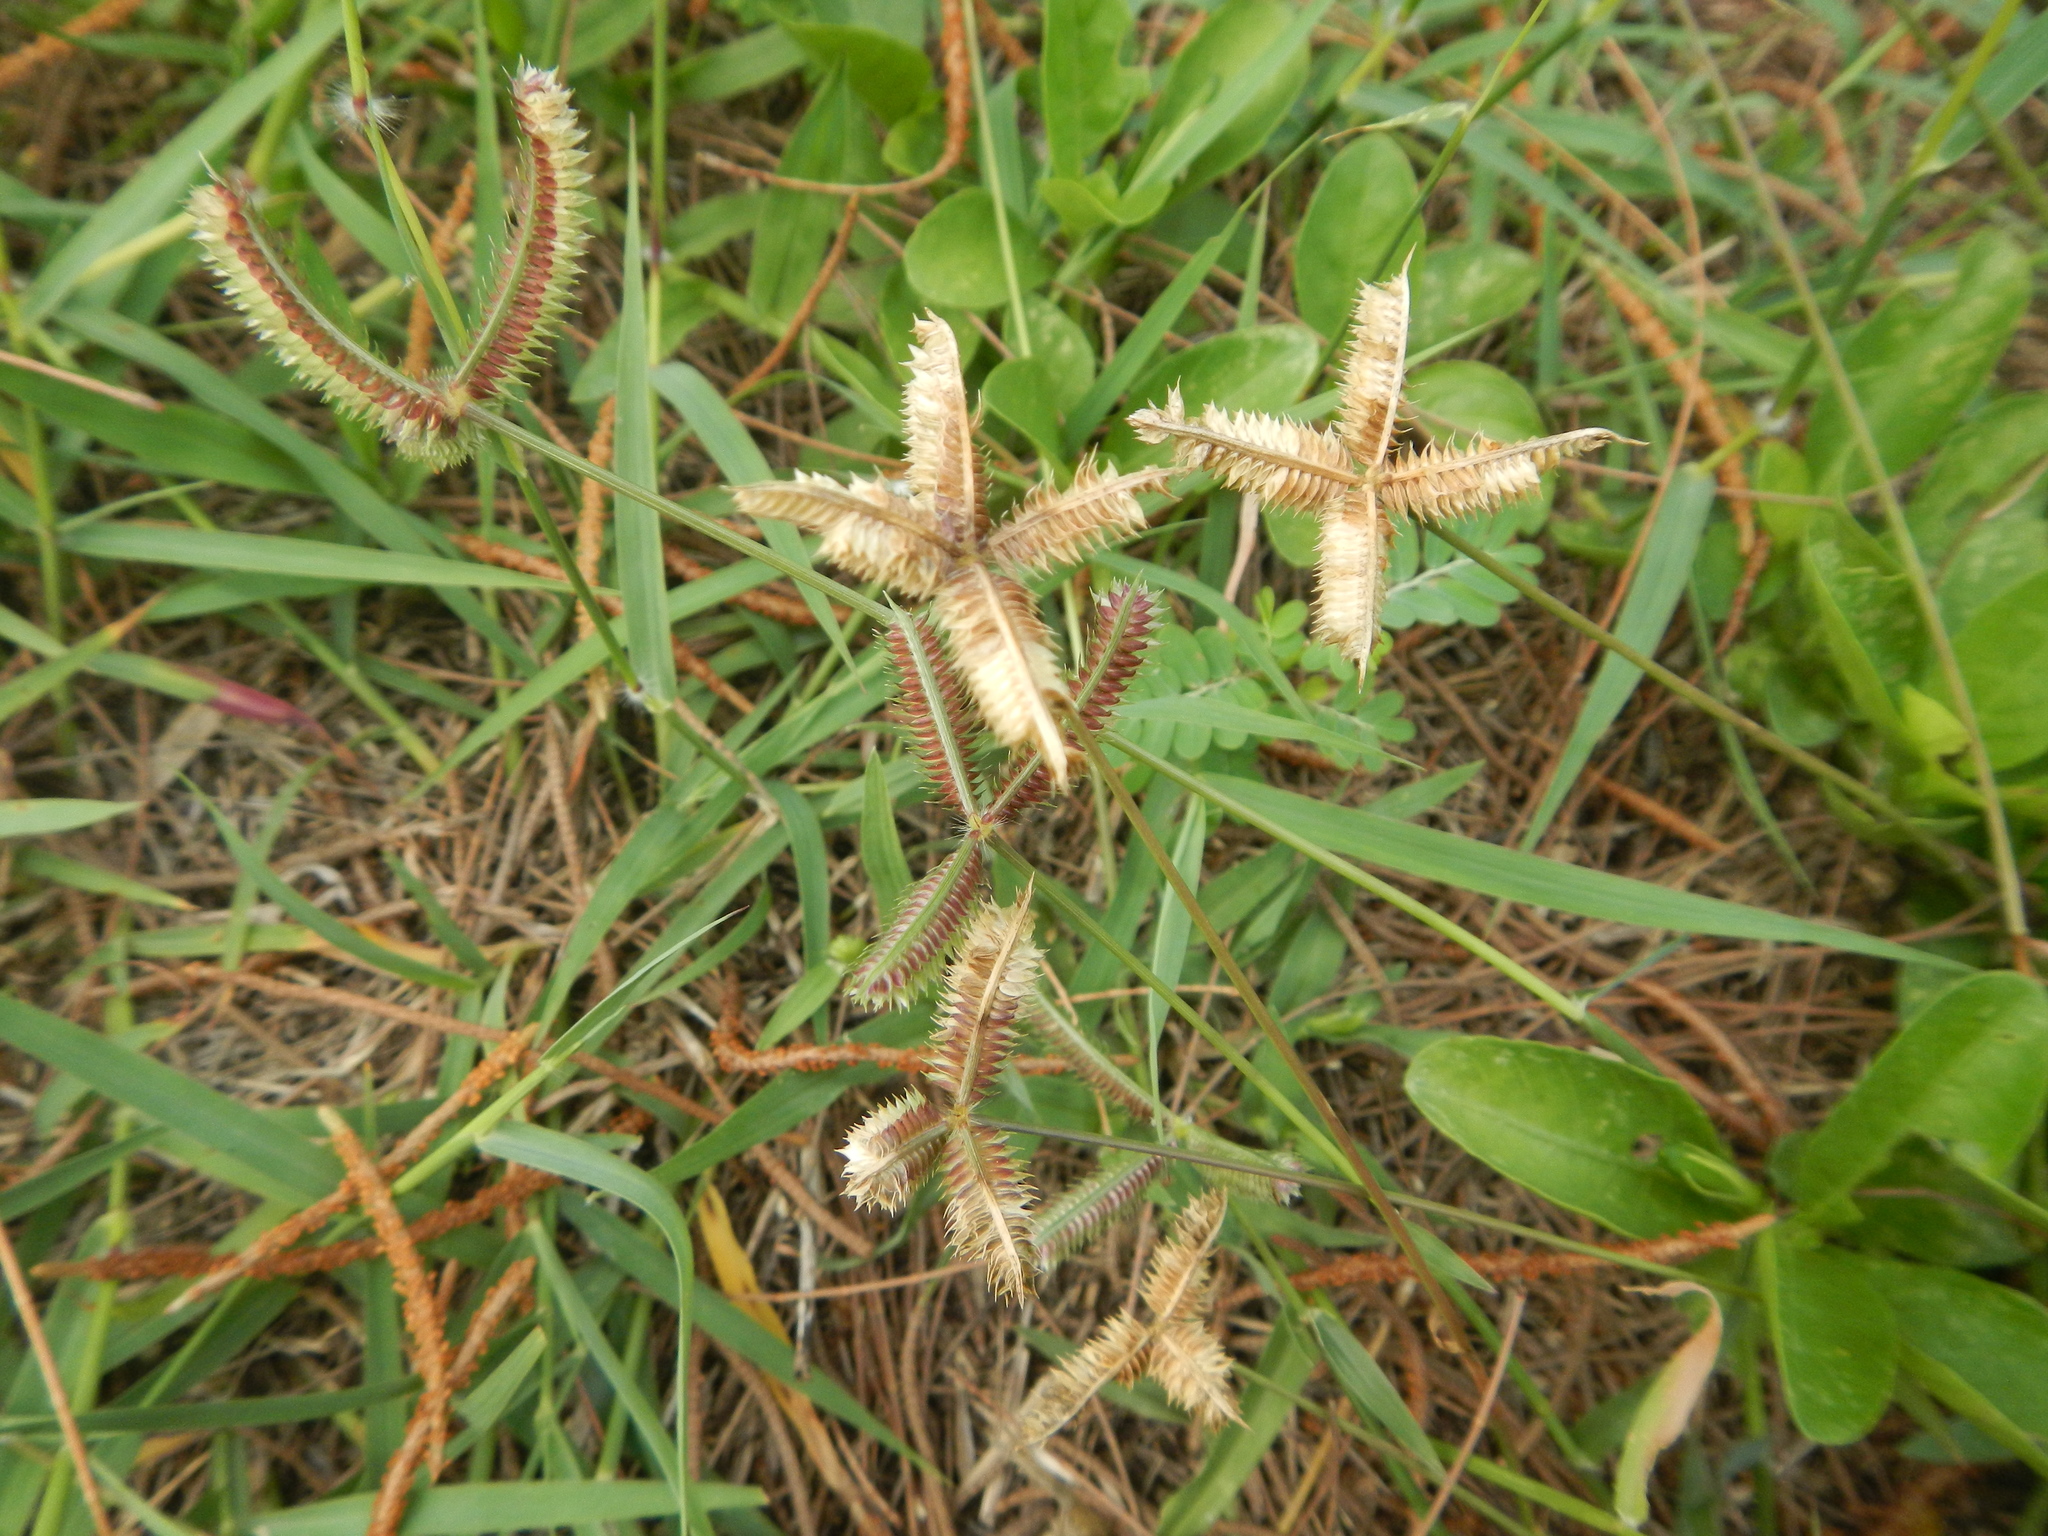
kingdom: Plantae
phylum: Tracheophyta
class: Liliopsida
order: Poales
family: Poaceae
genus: Dactyloctenium
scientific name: Dactyloctenium aegyptium
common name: Egyptian grass
